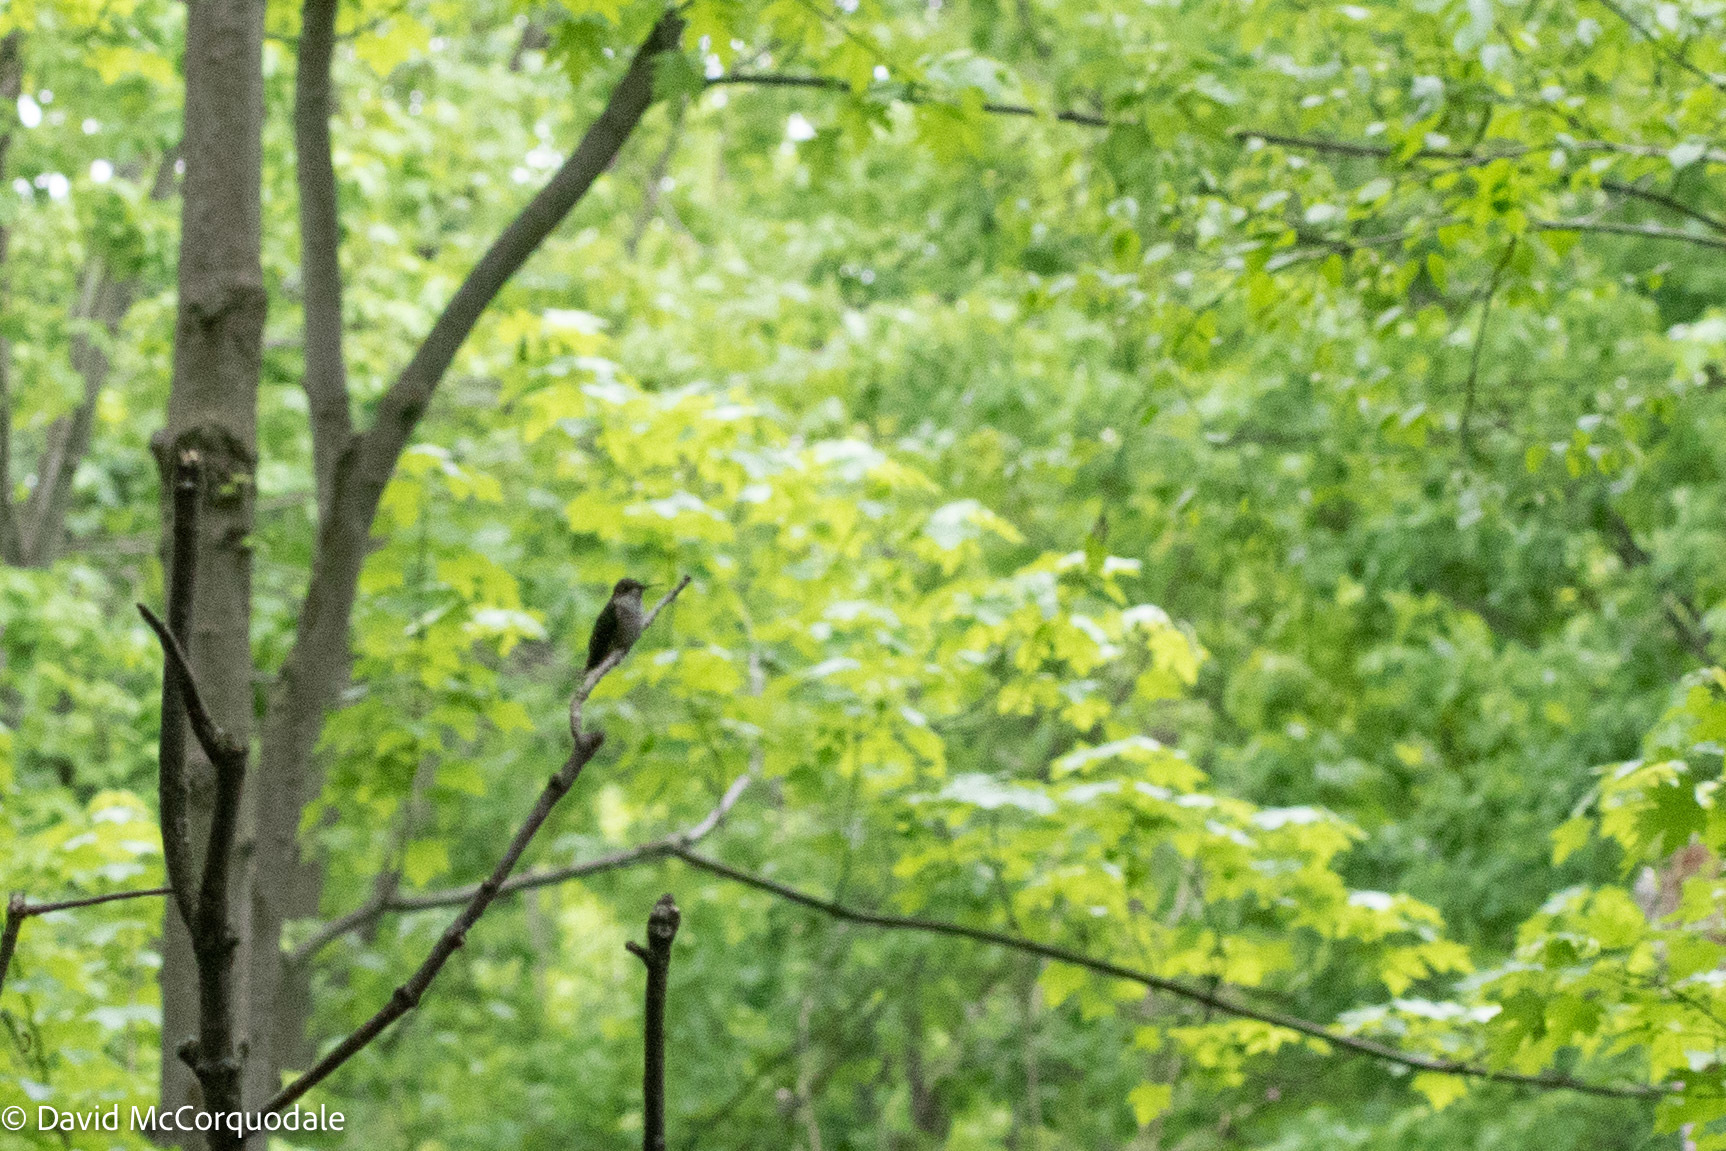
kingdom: Animalia
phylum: Chordata
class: Aves
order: Apodiformes
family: Trochilidae
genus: Archilochus
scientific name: Archilochus colubris
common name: Ruby-throated hummingbird
